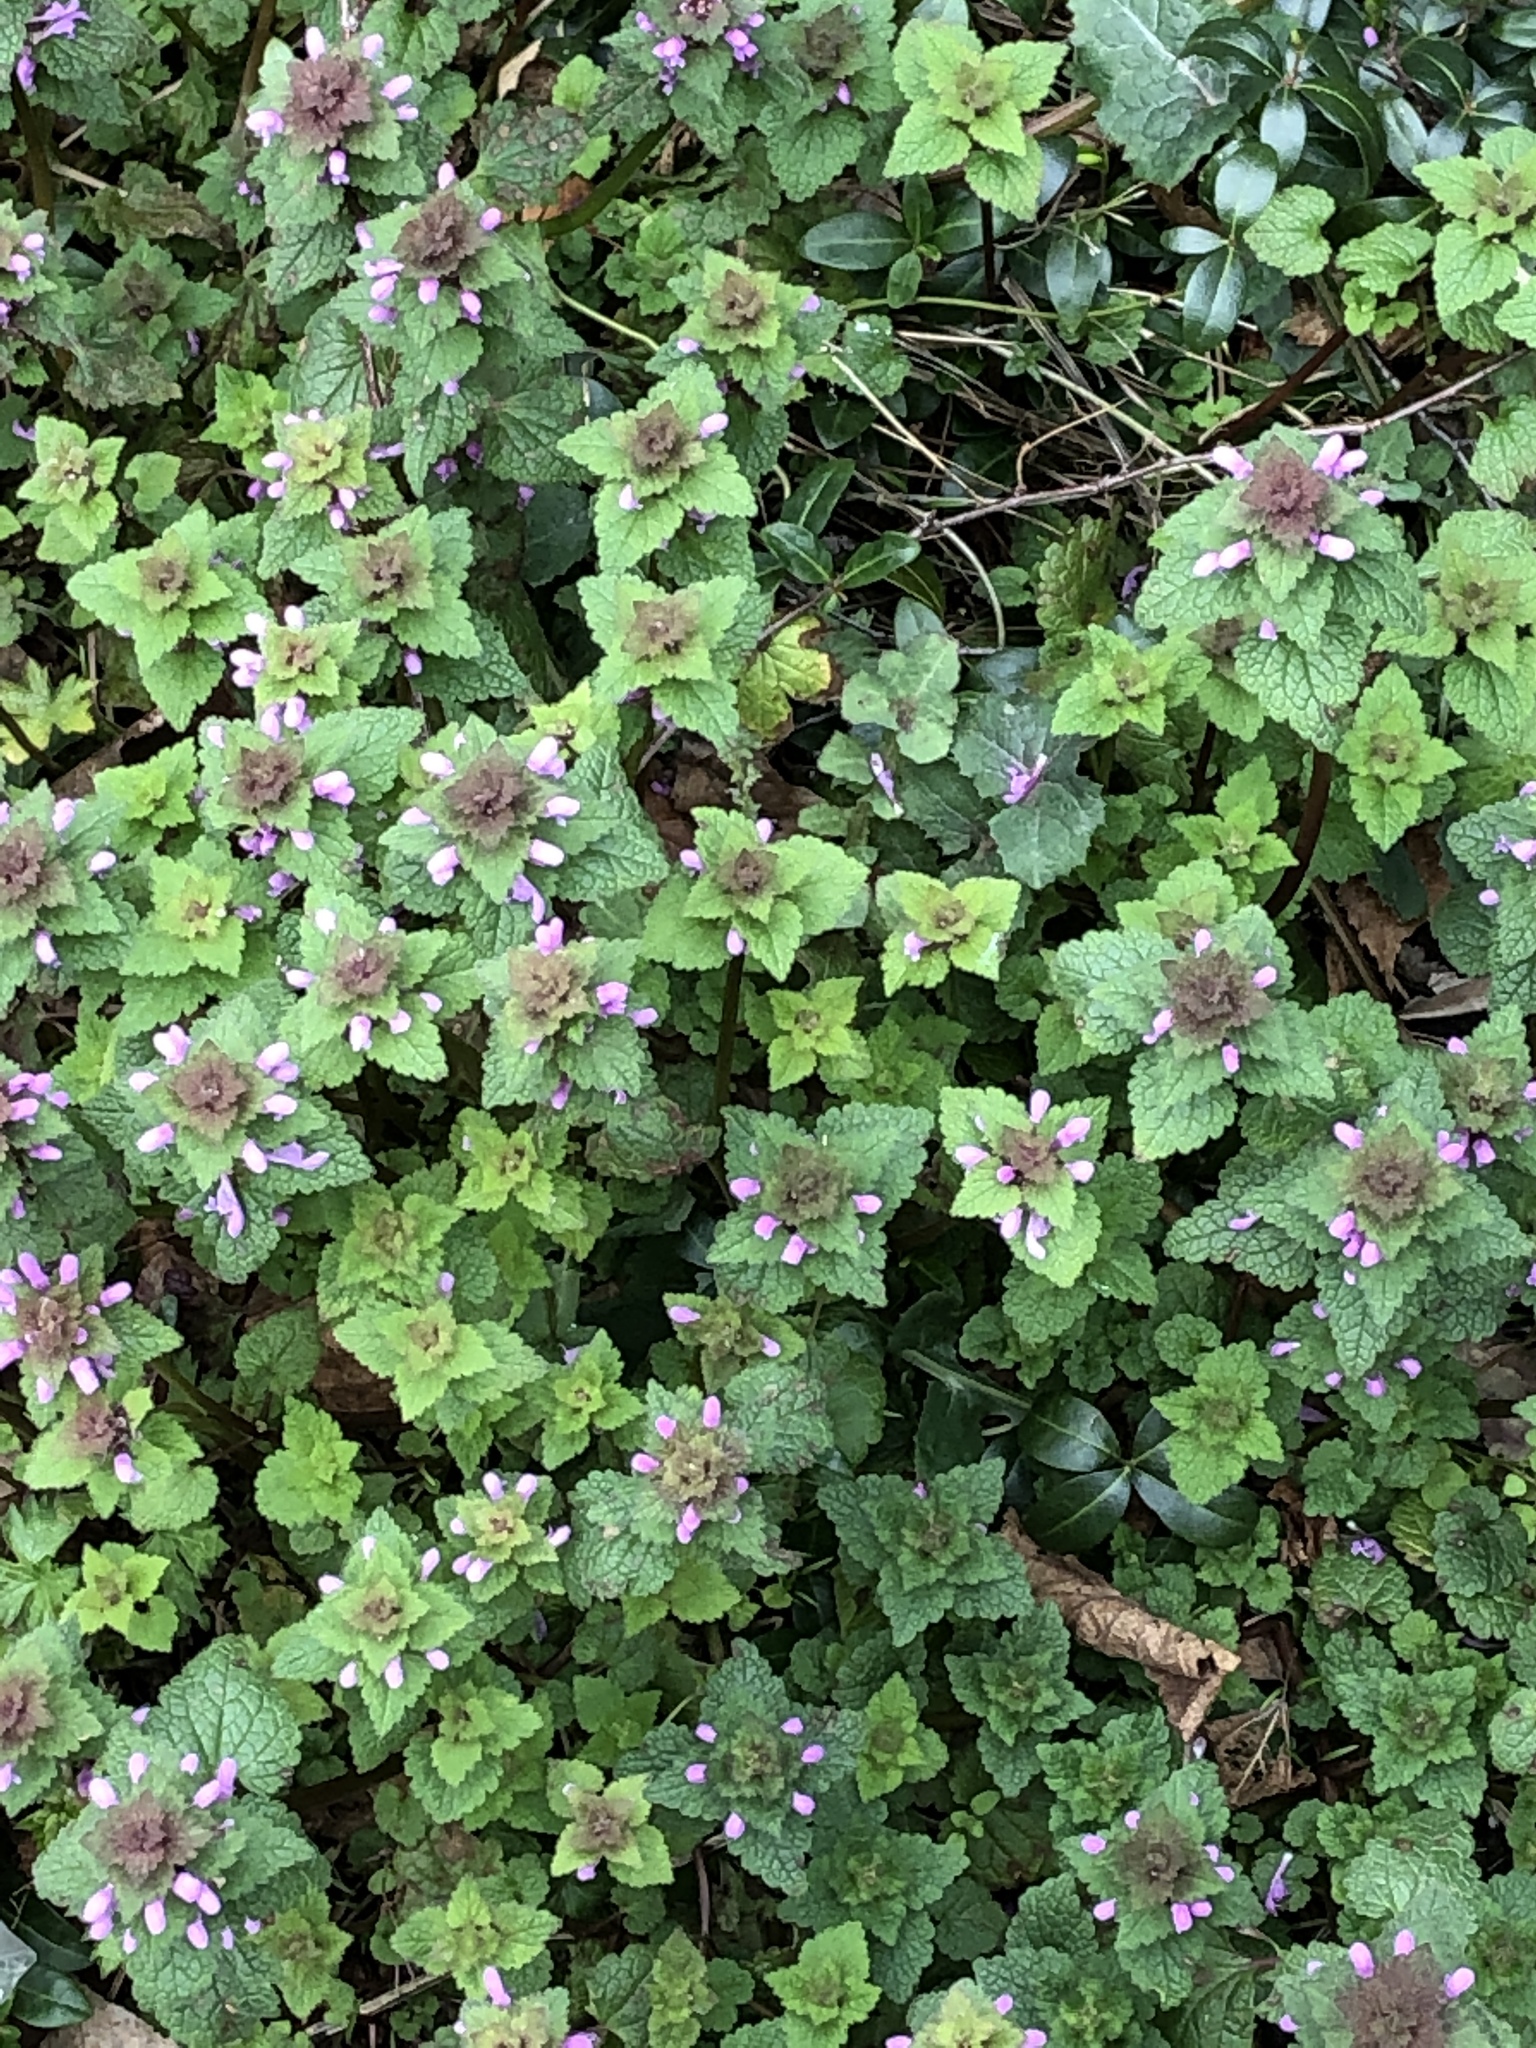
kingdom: Plantae
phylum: Tracheophyta
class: Magnoliopsida
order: Lamiales
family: Lamiaceae
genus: Lamium
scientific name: Lamium purpureum
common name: Red dead-nettle
